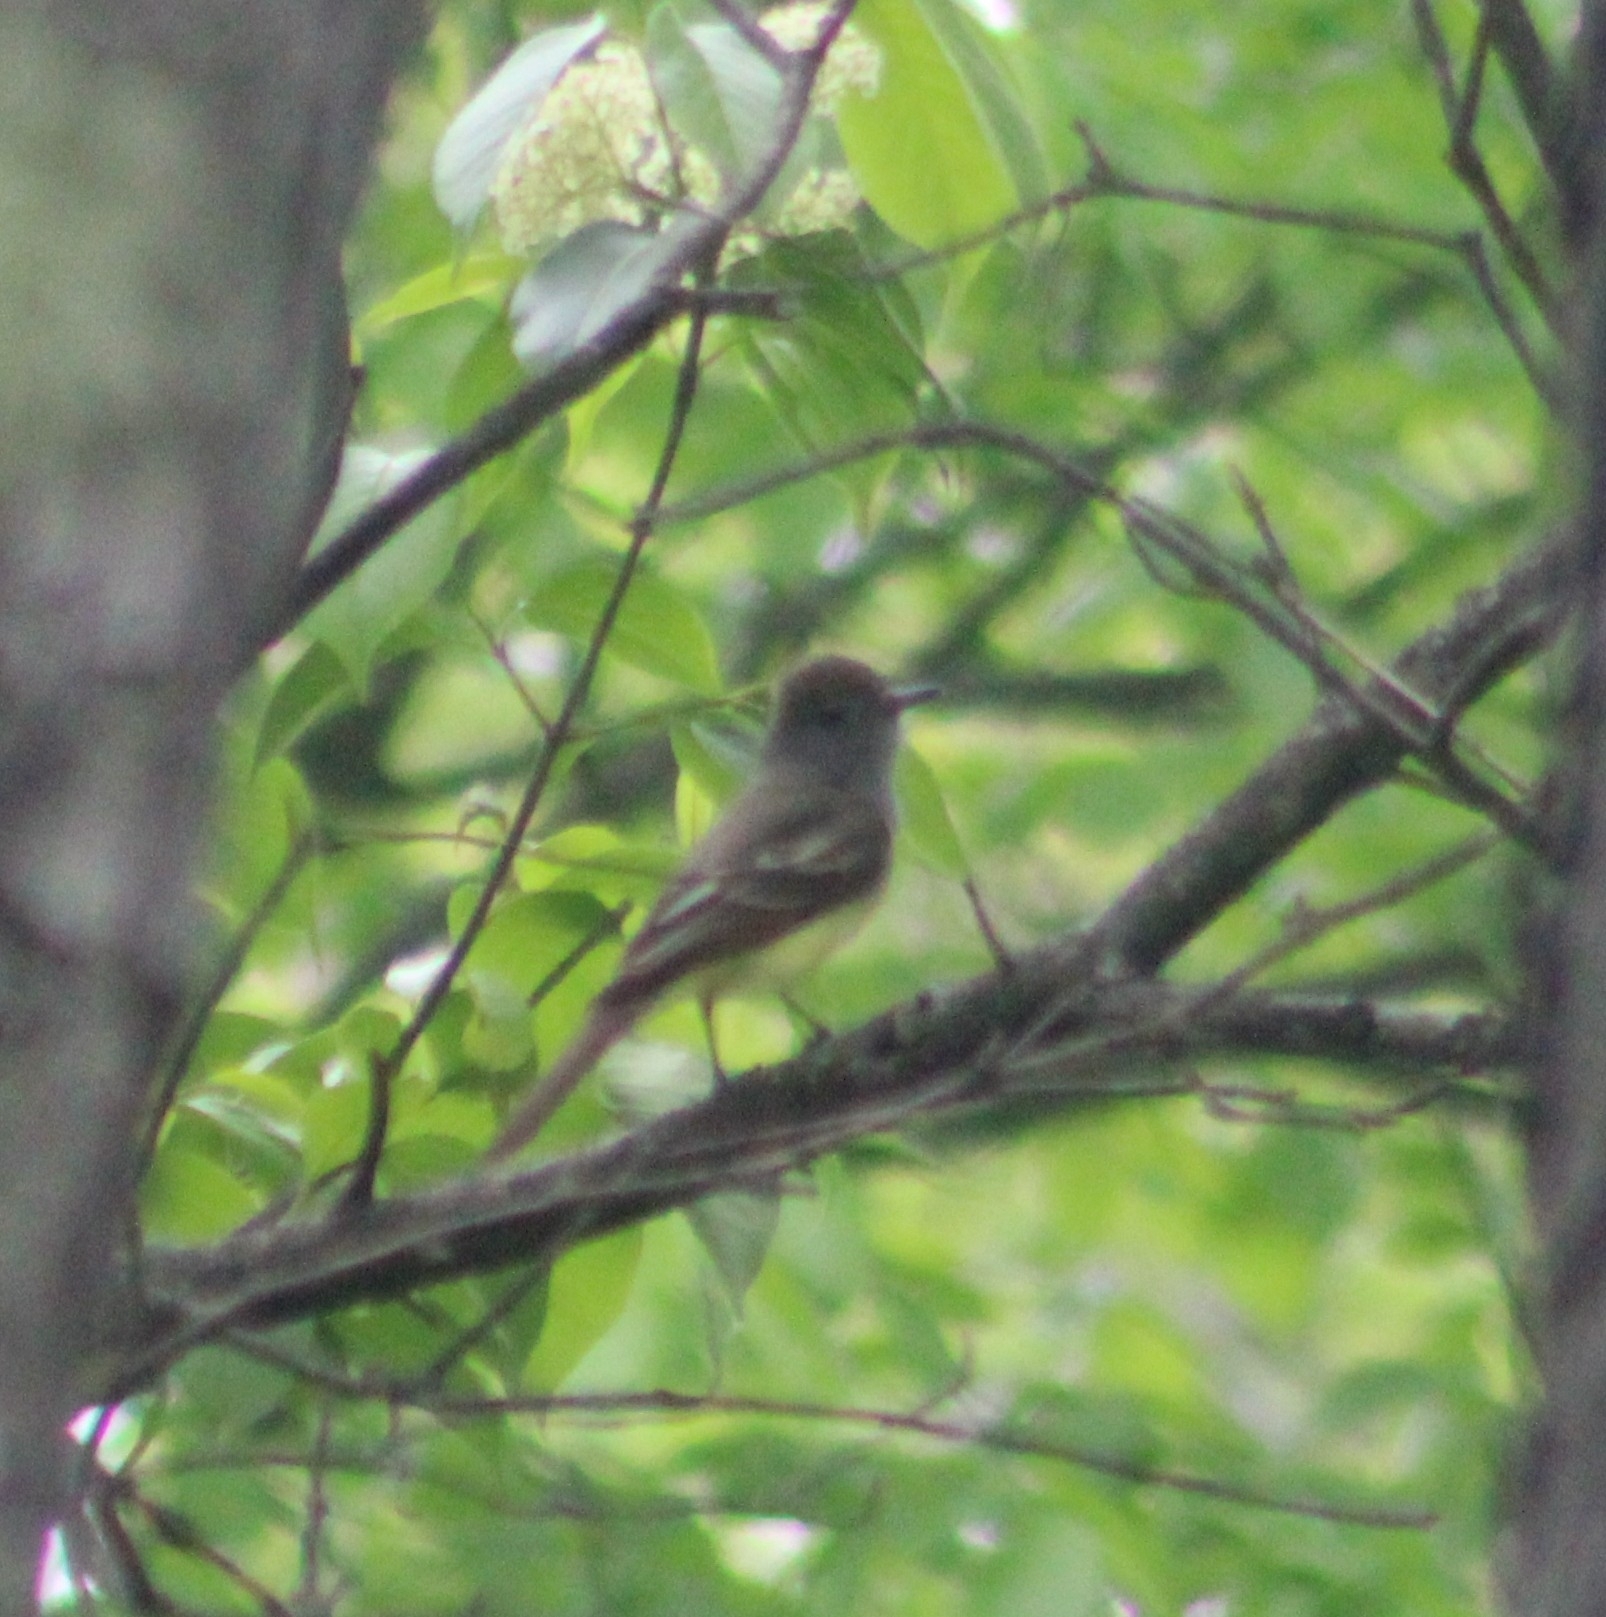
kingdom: Animalia
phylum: Chordata
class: Aves
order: Passeriformes
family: Tyrannidae
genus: Myiarchus
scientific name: Myiarchus crinitus
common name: Great crested flycatcher
